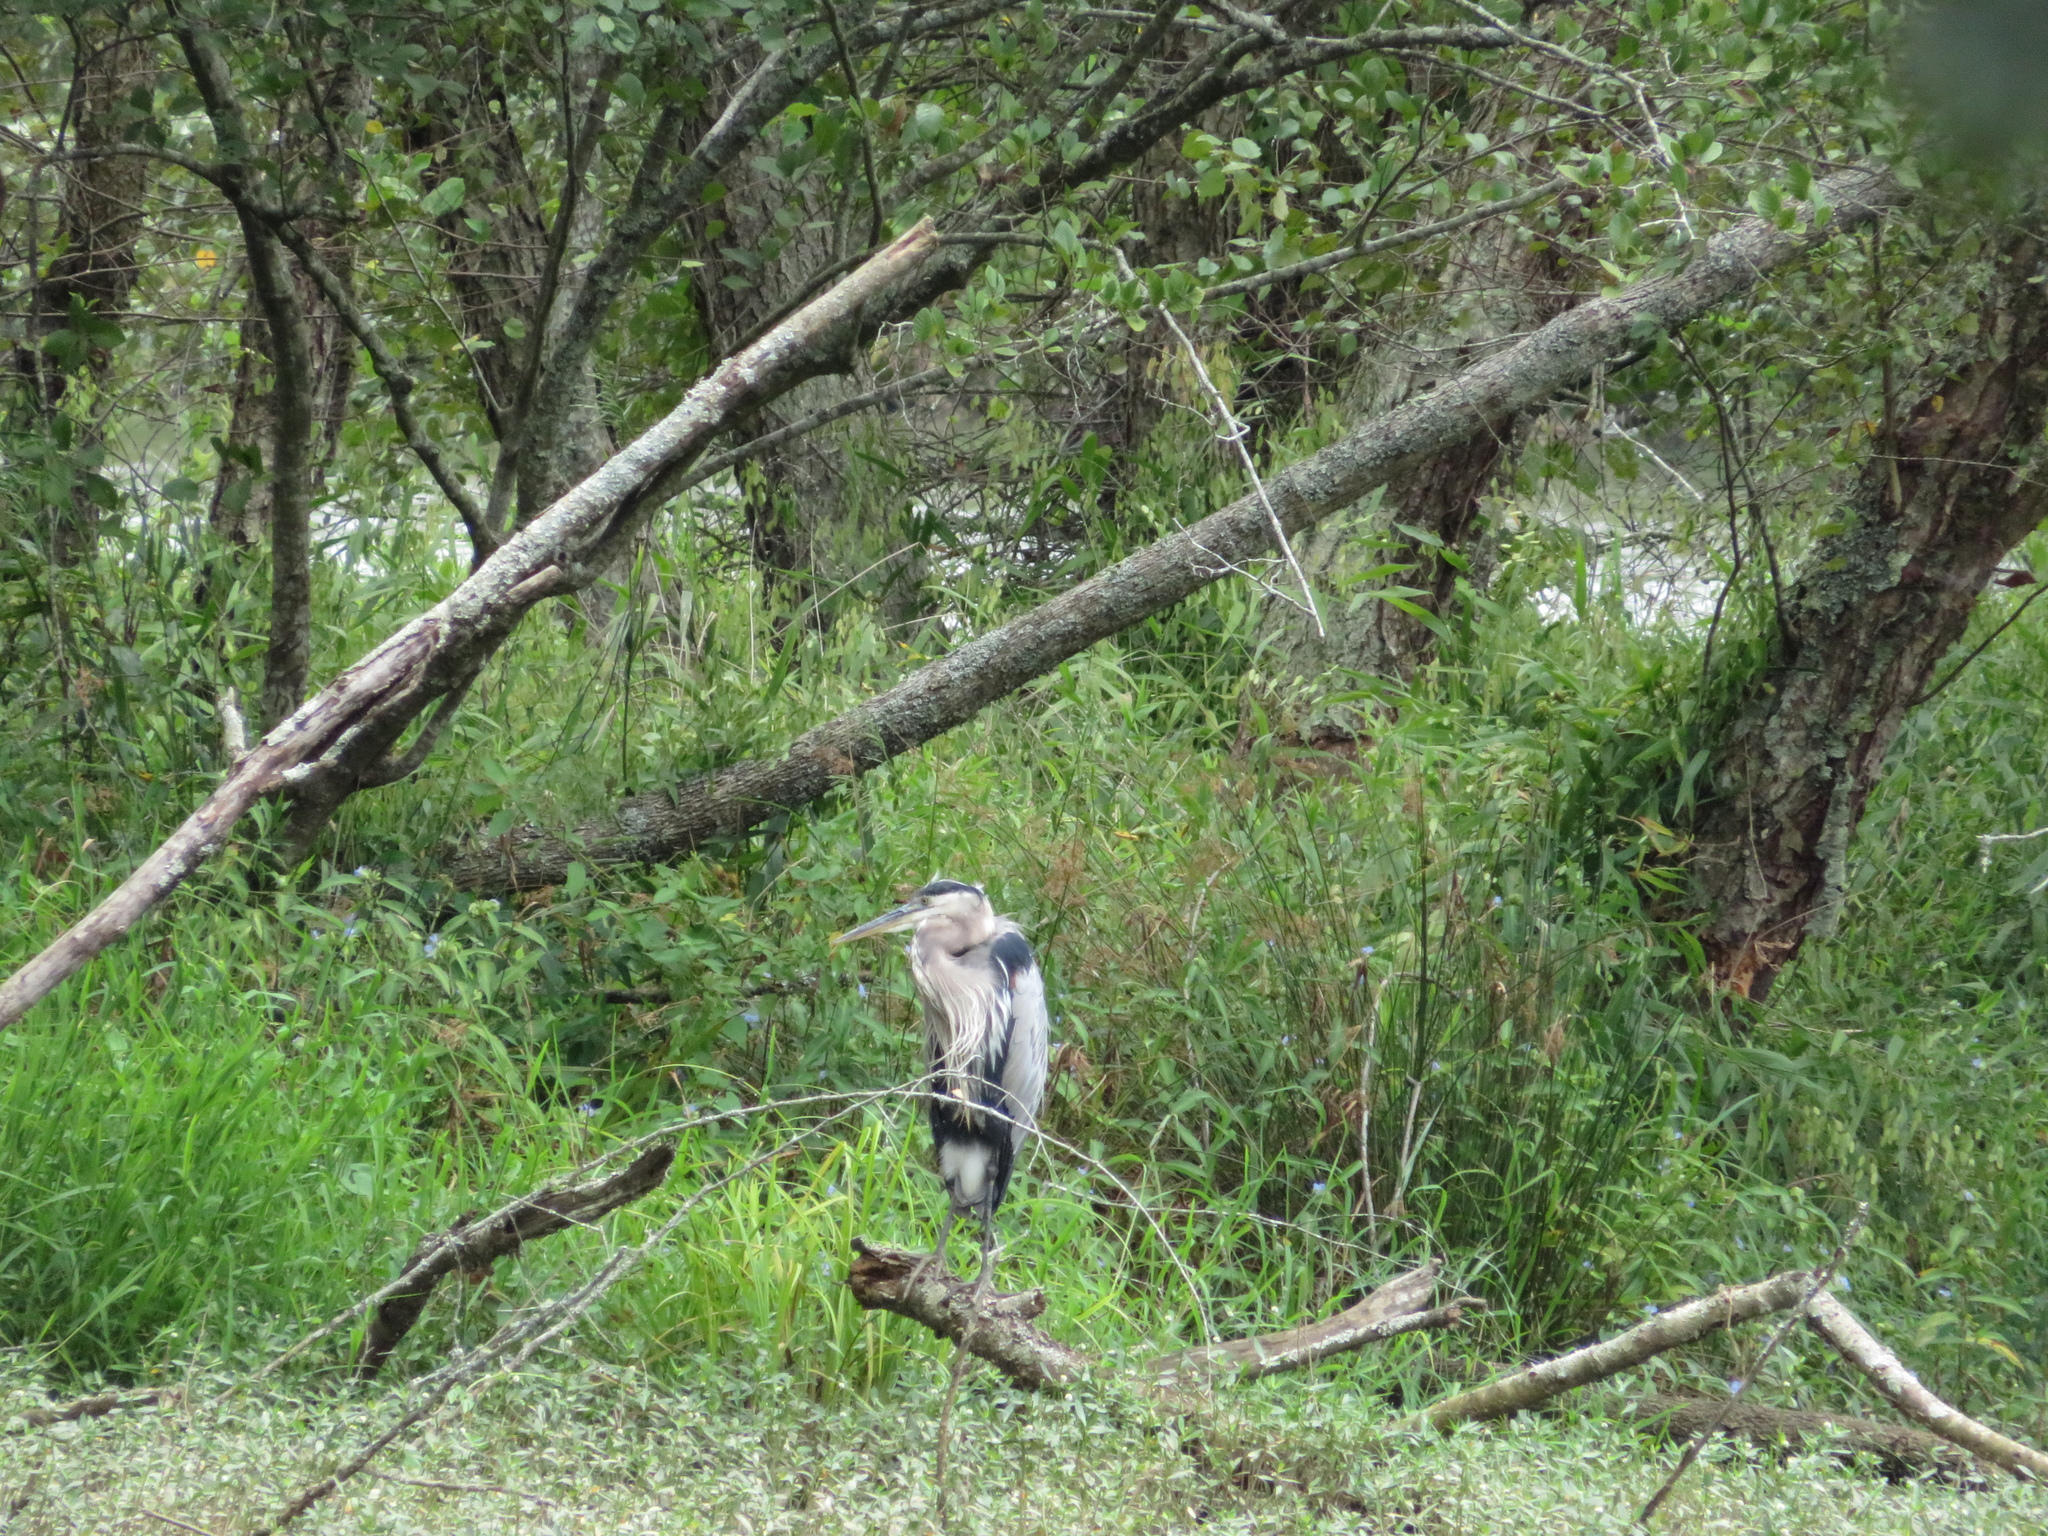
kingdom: Animalia
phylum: Chordata
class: Aves
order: Pelecaniformes
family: Ardeidae
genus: Ardea
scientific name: Ardea herodias
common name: Great blue heron
